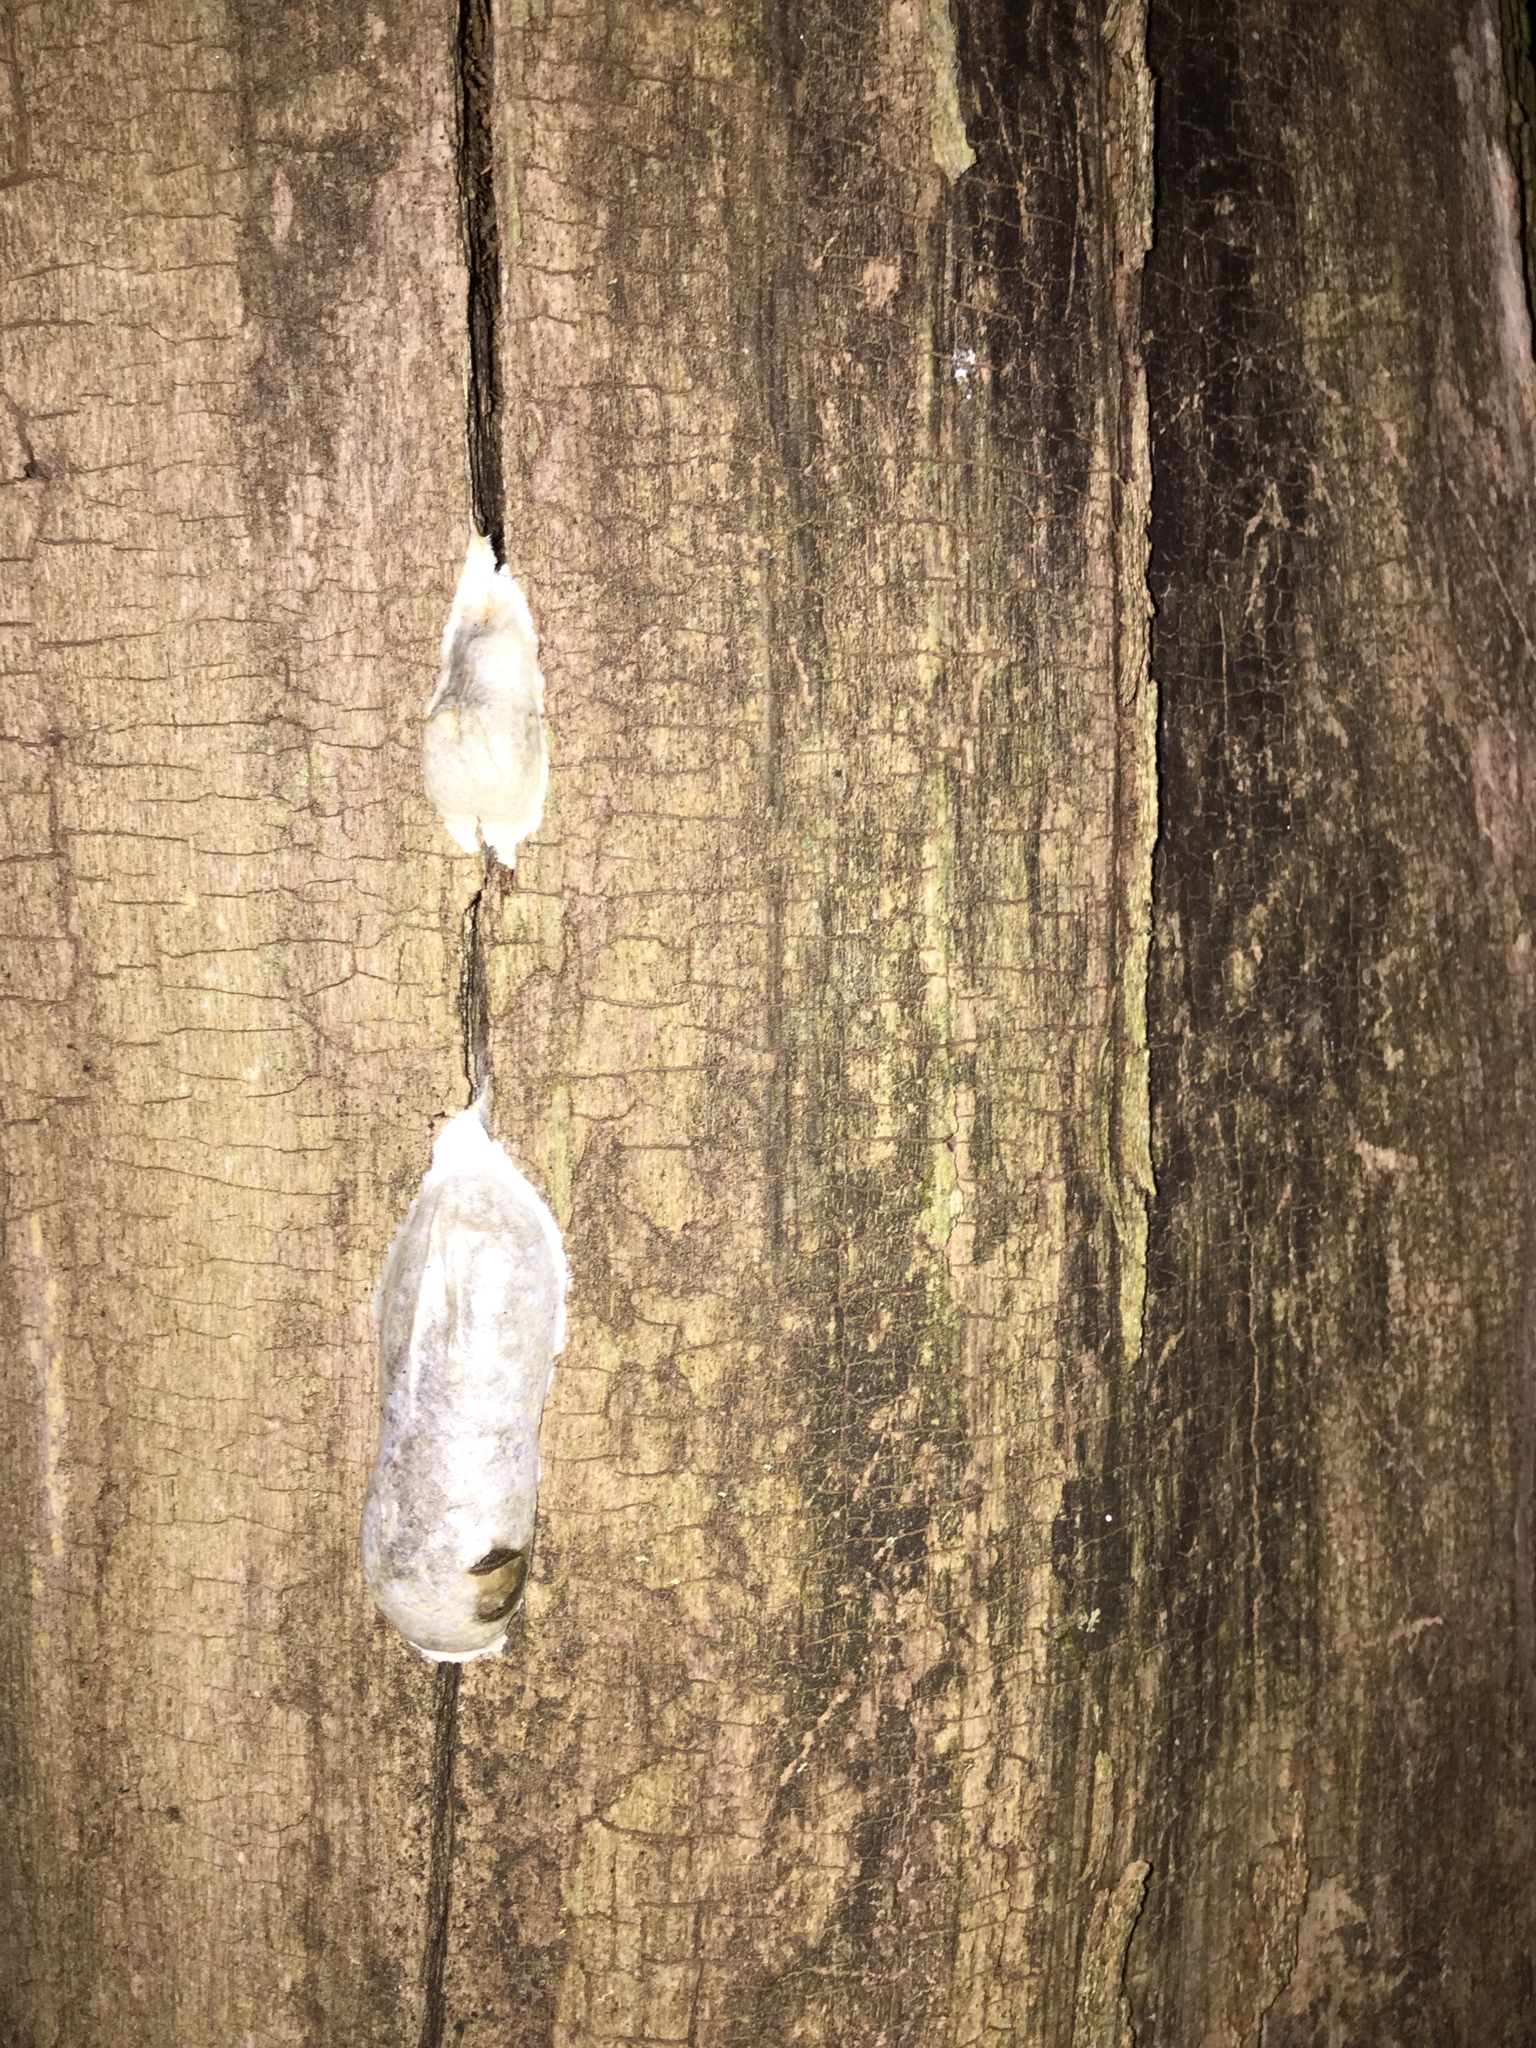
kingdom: Protozoa
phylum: Mycetozoa
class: Myxomycetes
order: Cribrariales
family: Tubiferaceae
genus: Reticularia
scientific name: Reticularia lycoperdon
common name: False puffball
